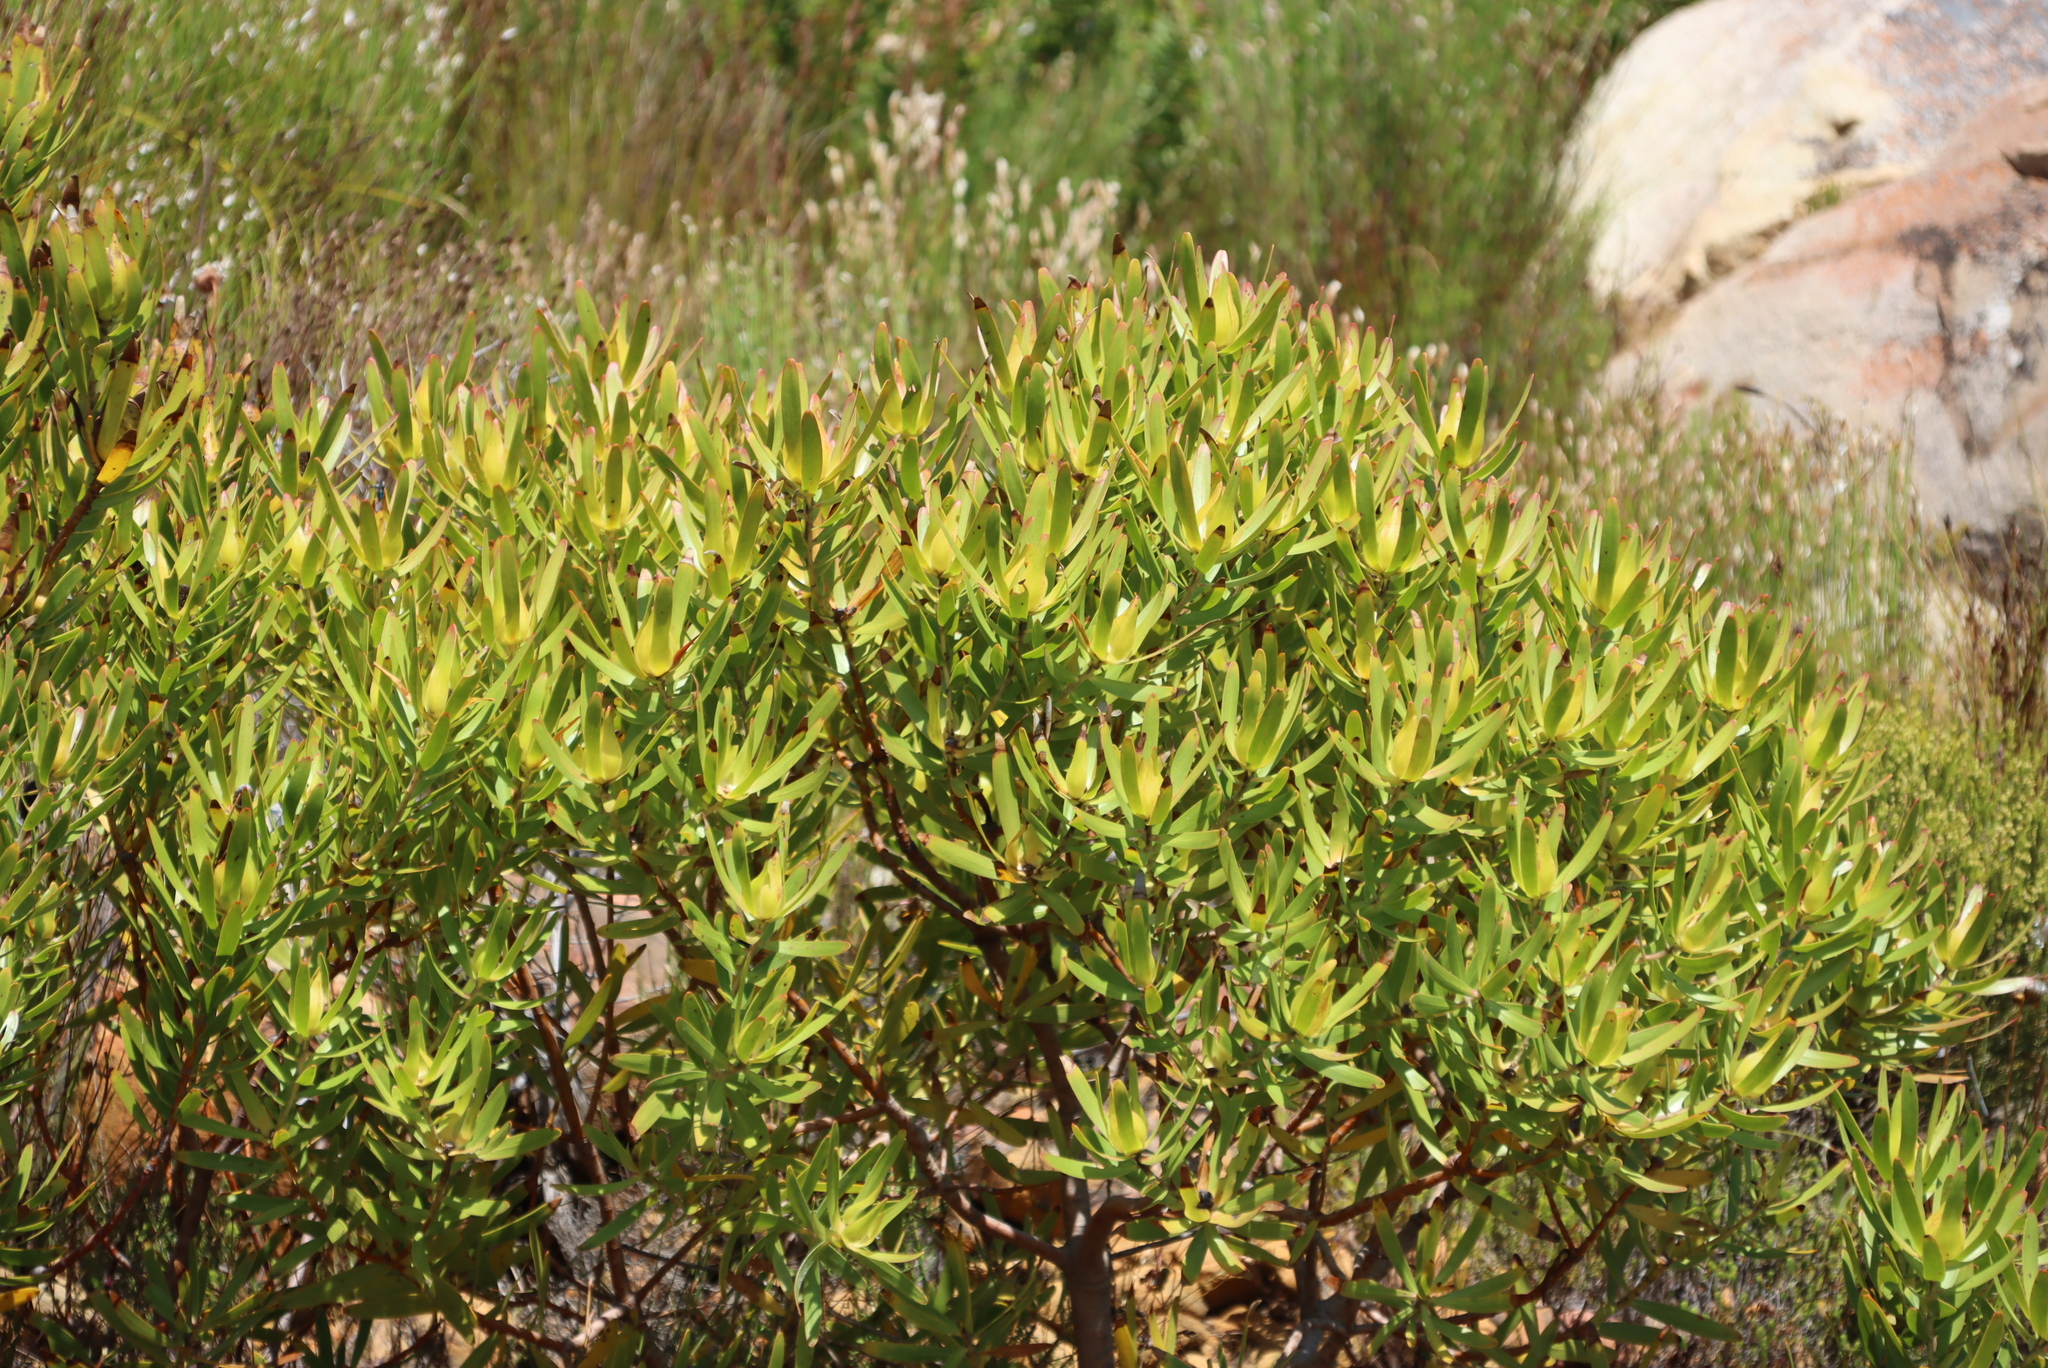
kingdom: Plantae
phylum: Tracheophyta
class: Magnoliopsida
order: Proteales
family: Proteaceae
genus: Leucadendron
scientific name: Leucadendron laureolum
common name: Golden sunshinebush
